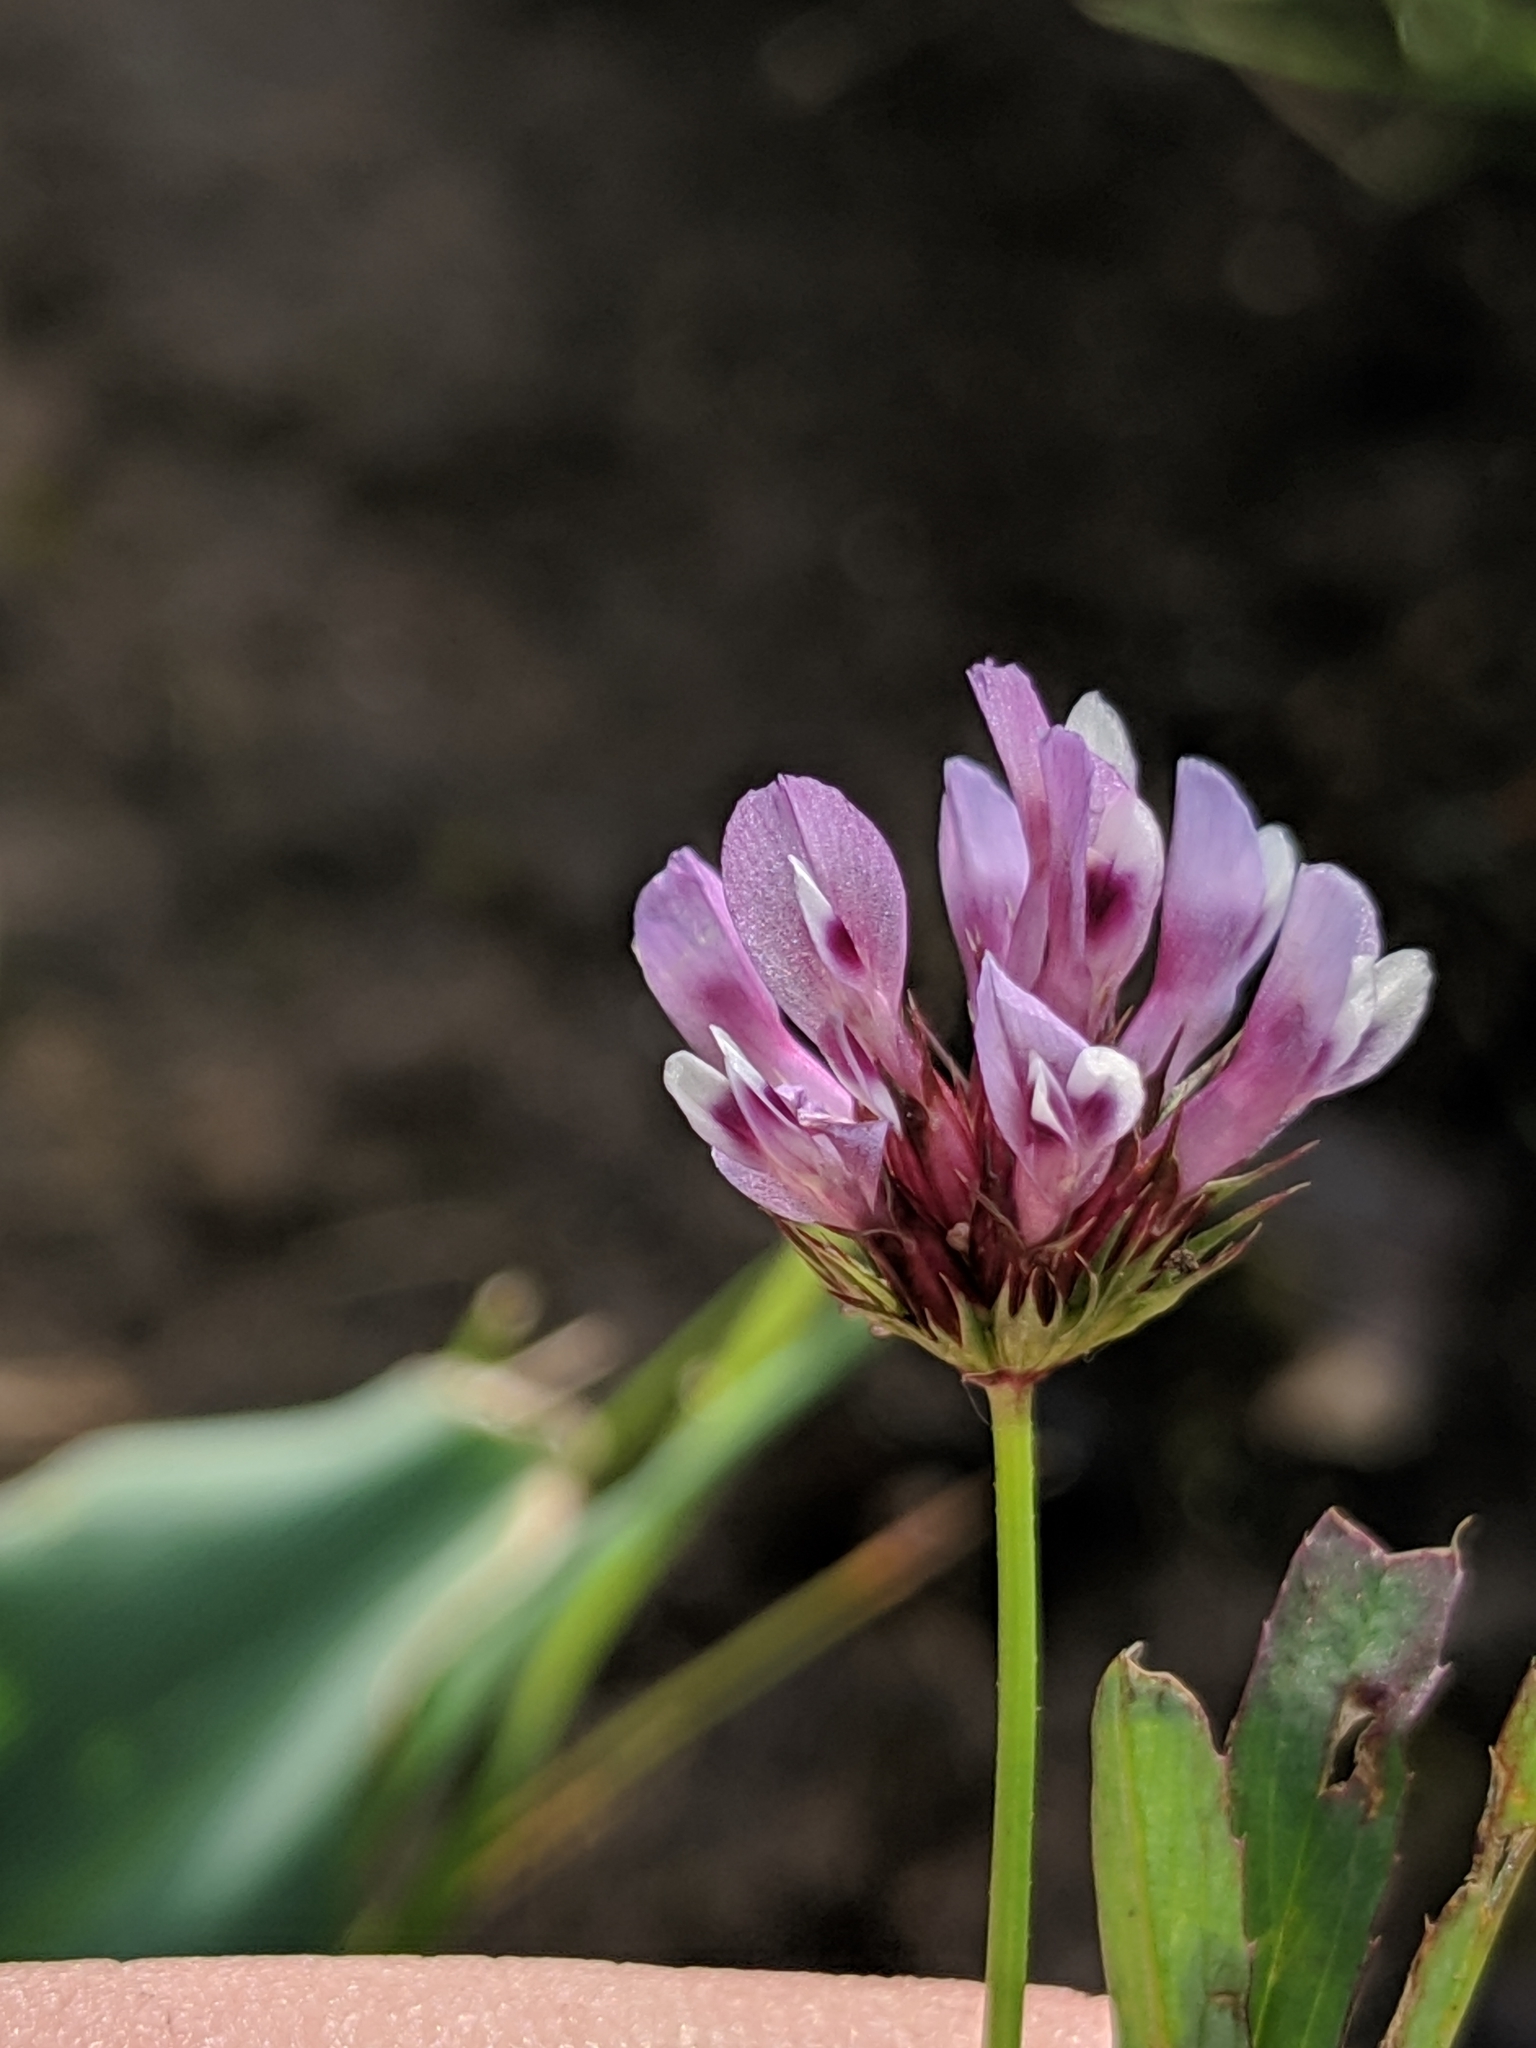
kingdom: Plantae
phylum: Tracheophyta
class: Magnoliopsida
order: Fabales
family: Fabaceae
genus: Trifolium
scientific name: Trifolium willdenovii
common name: Tomcat clover
